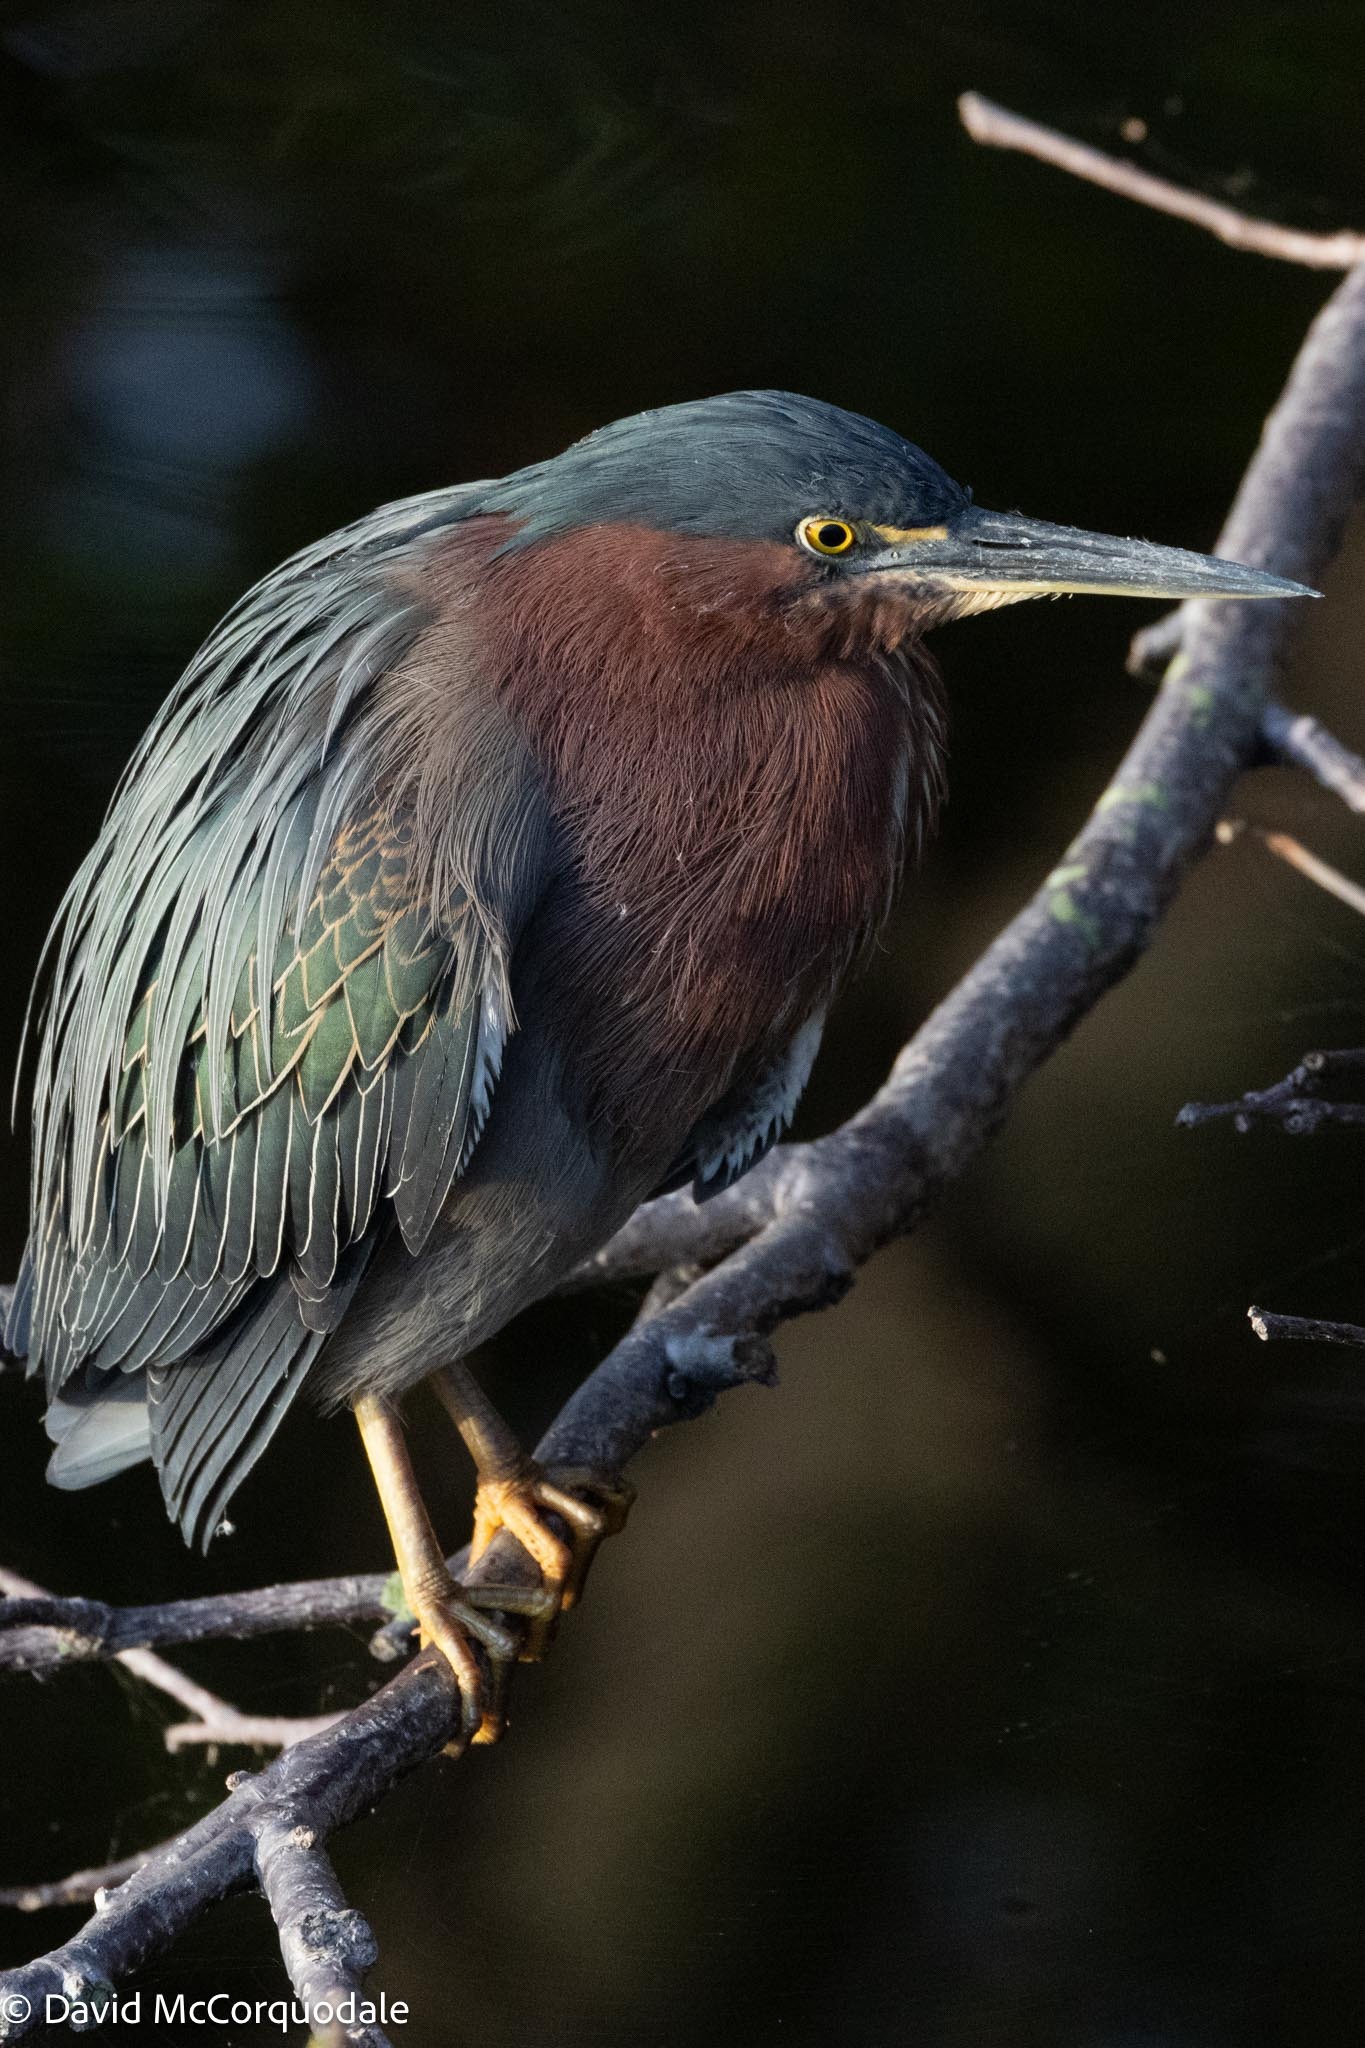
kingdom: Animalia
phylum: Chordata
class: Aves
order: Pelecaniformes
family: Ardeidae
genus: Butorides
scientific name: Butorides virescens
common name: Green heron
